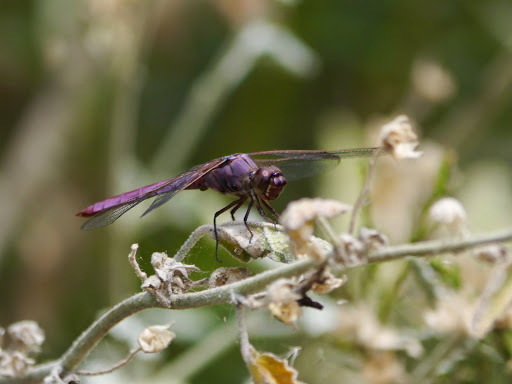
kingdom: Animalia
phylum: Arthropoda
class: Insecta
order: Odonata
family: Libellulidae
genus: Orthemis
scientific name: Orthemis ferruginea
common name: Roseate skimmer
